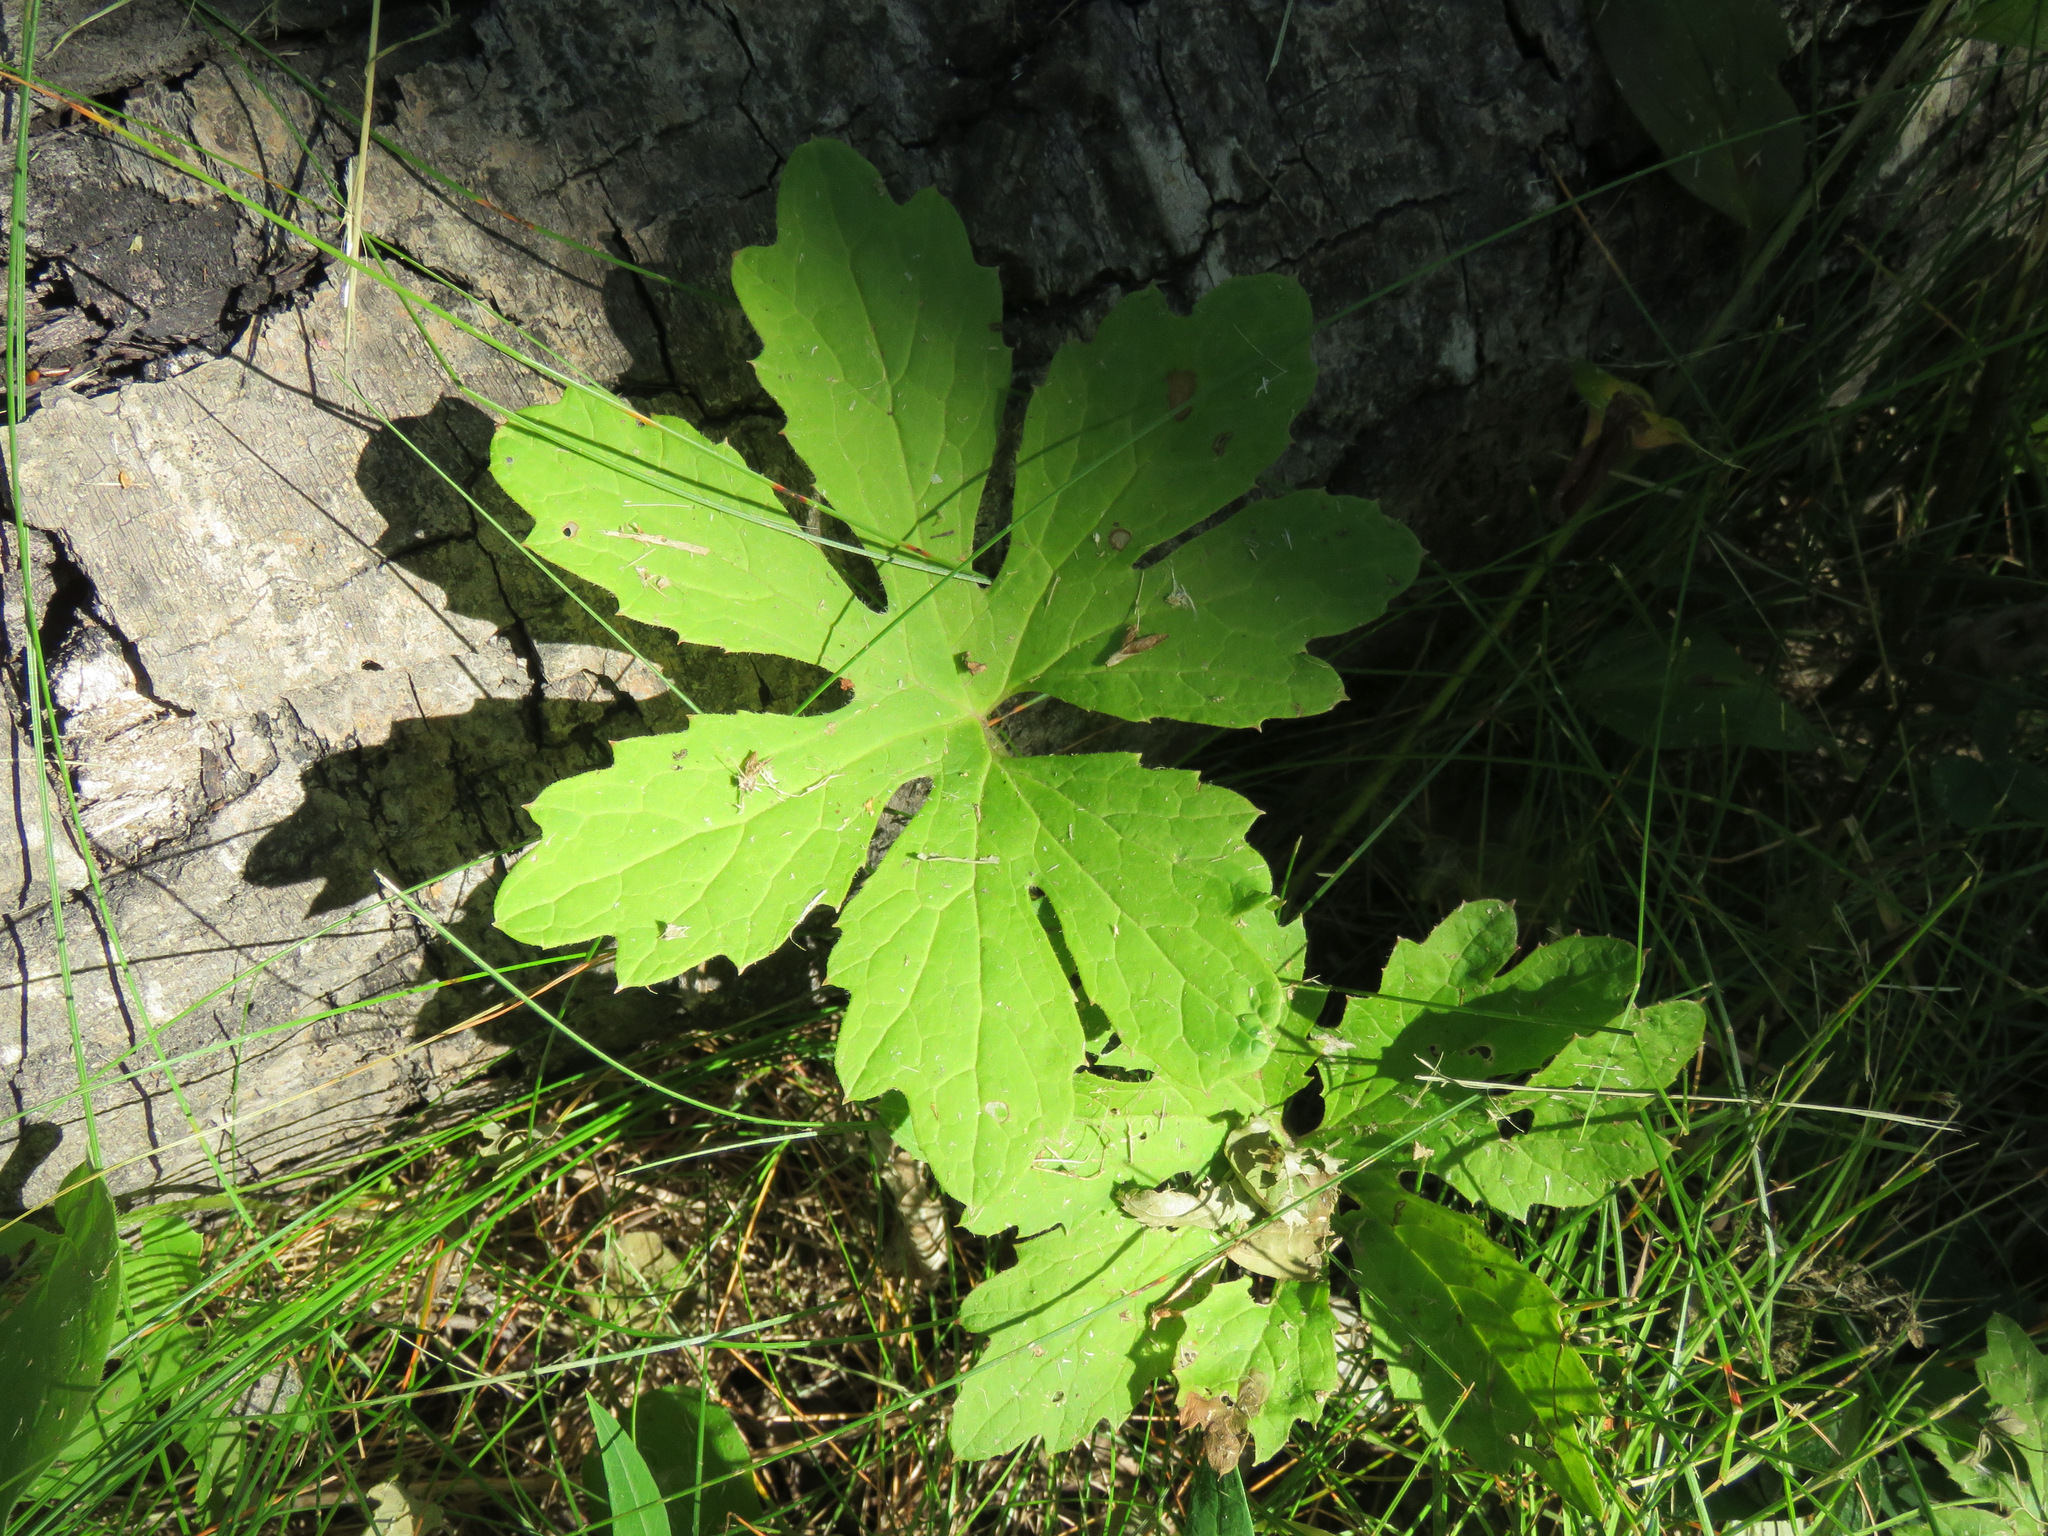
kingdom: Plantae
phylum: Tracheophyta
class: Magnoliopsida
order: Asterales
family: Asteraceae
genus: Petasites
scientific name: Petasites frigidus
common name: Arctic butterbur
